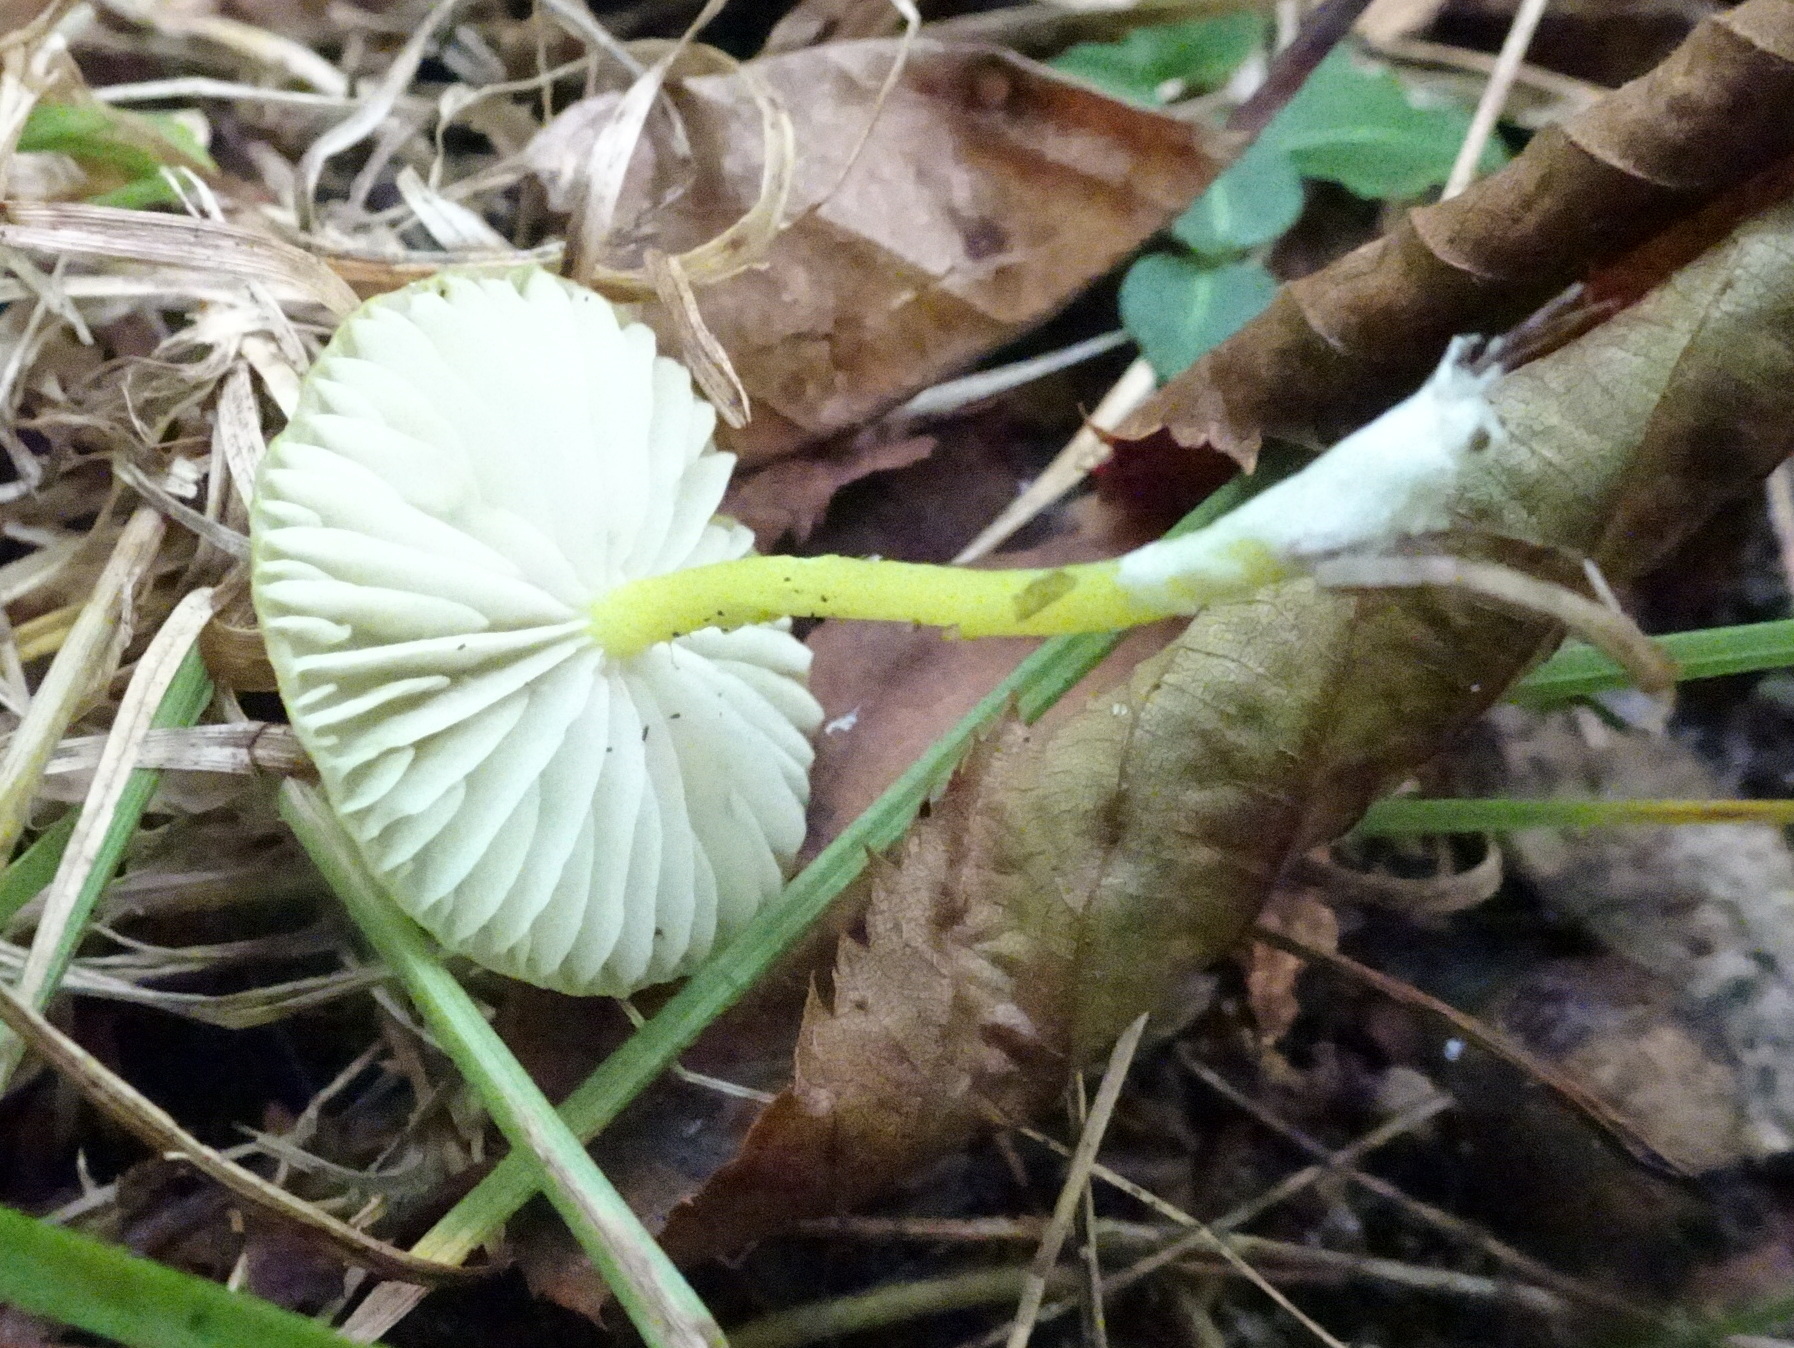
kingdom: Fungi
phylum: Basidiomycota
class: Agaricomycetes
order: Agaricales
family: Entolomataceae
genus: Entoloma
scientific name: Entoloma incanum
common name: Mousepee pinkgill
